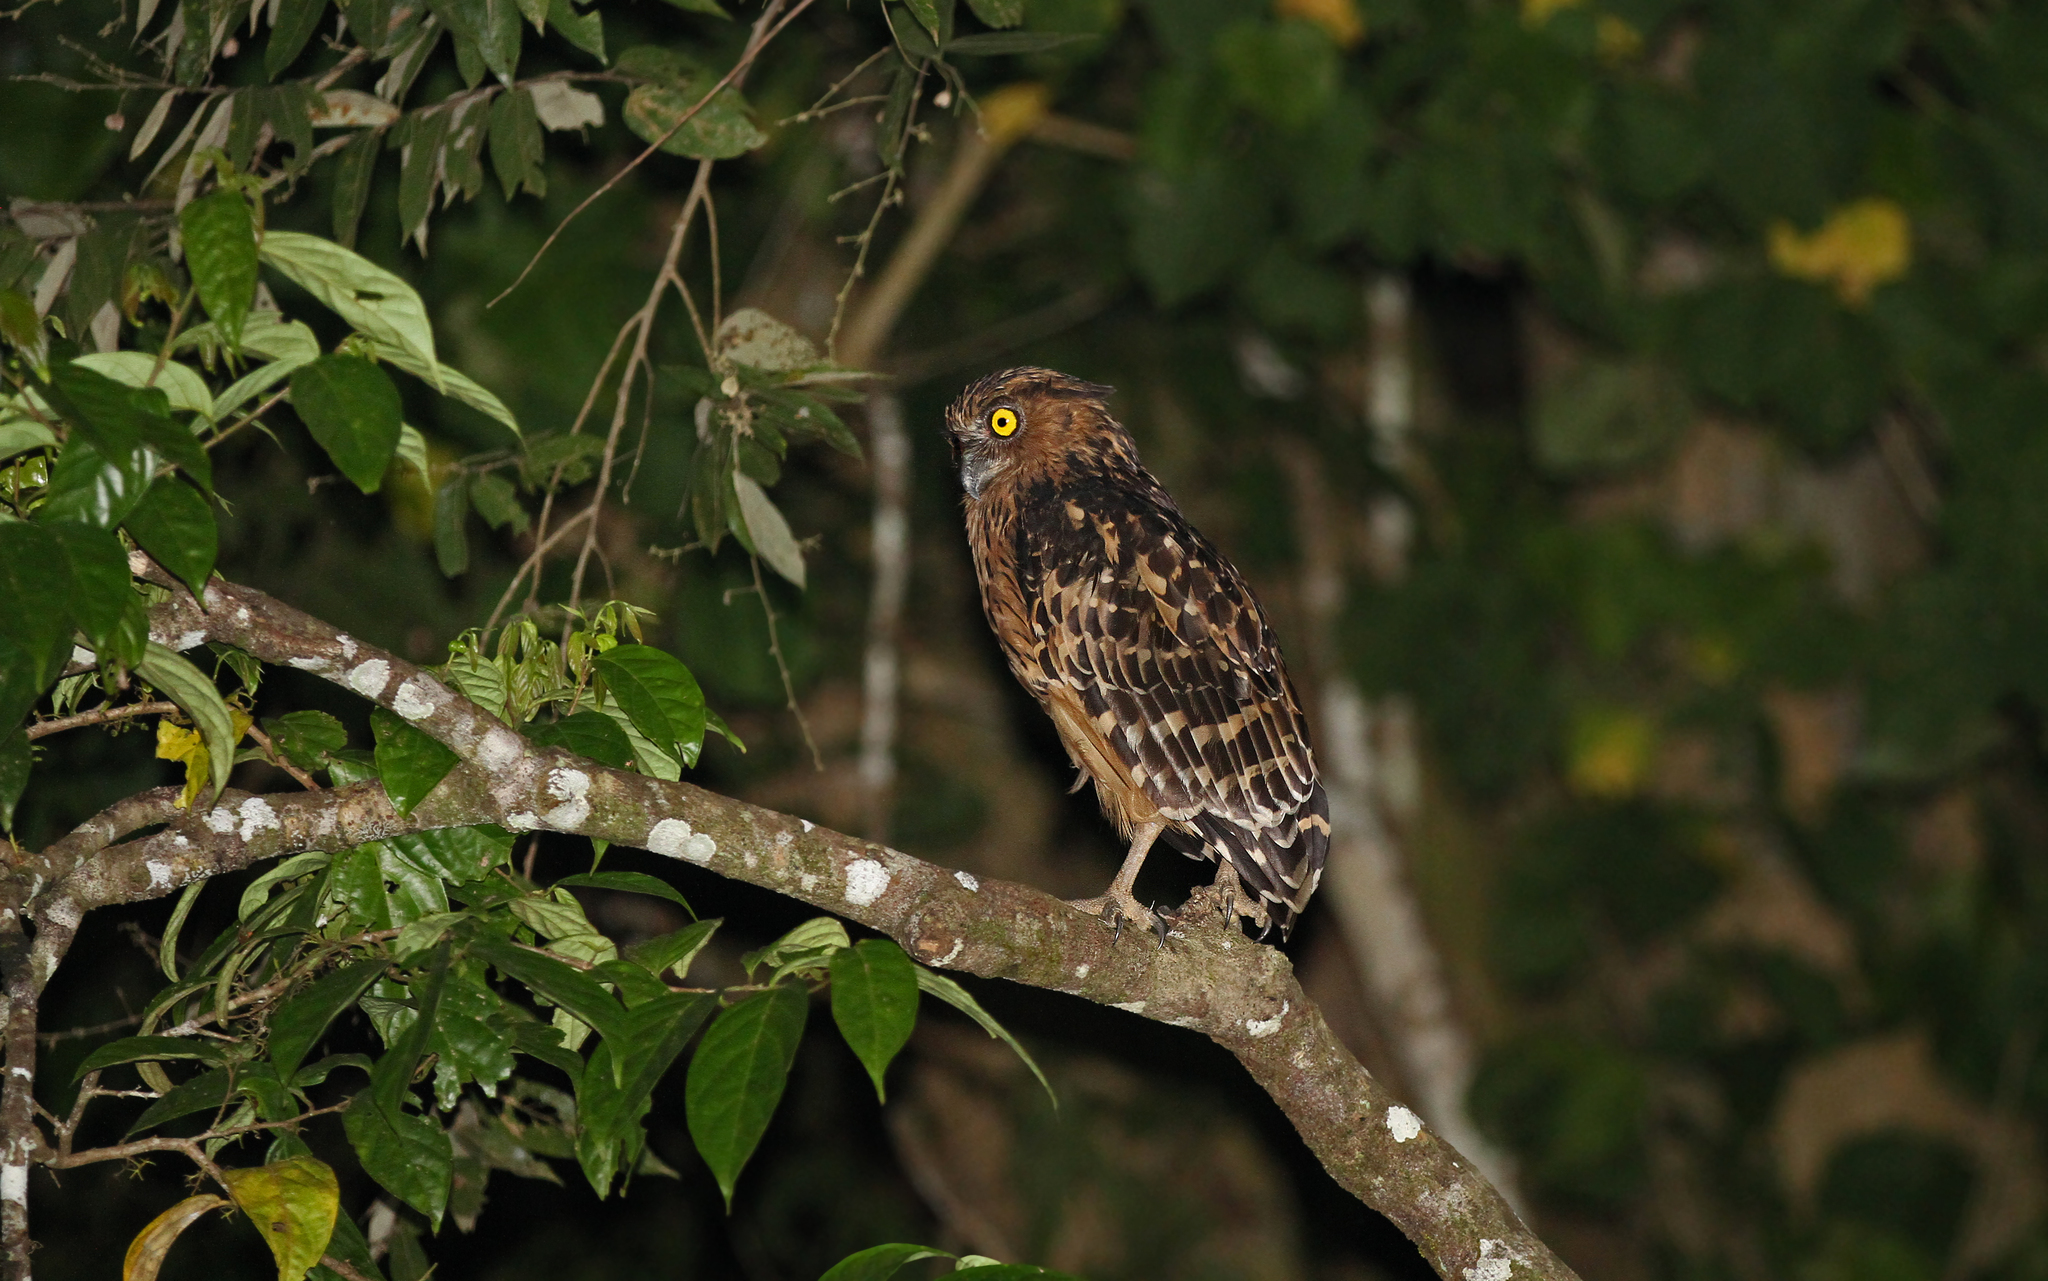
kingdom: Animalia
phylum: Chordata
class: Aves
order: Strigiformes
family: Strigidae
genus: Ketupa
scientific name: Ketupa ketupu
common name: Buffy fish-owl
